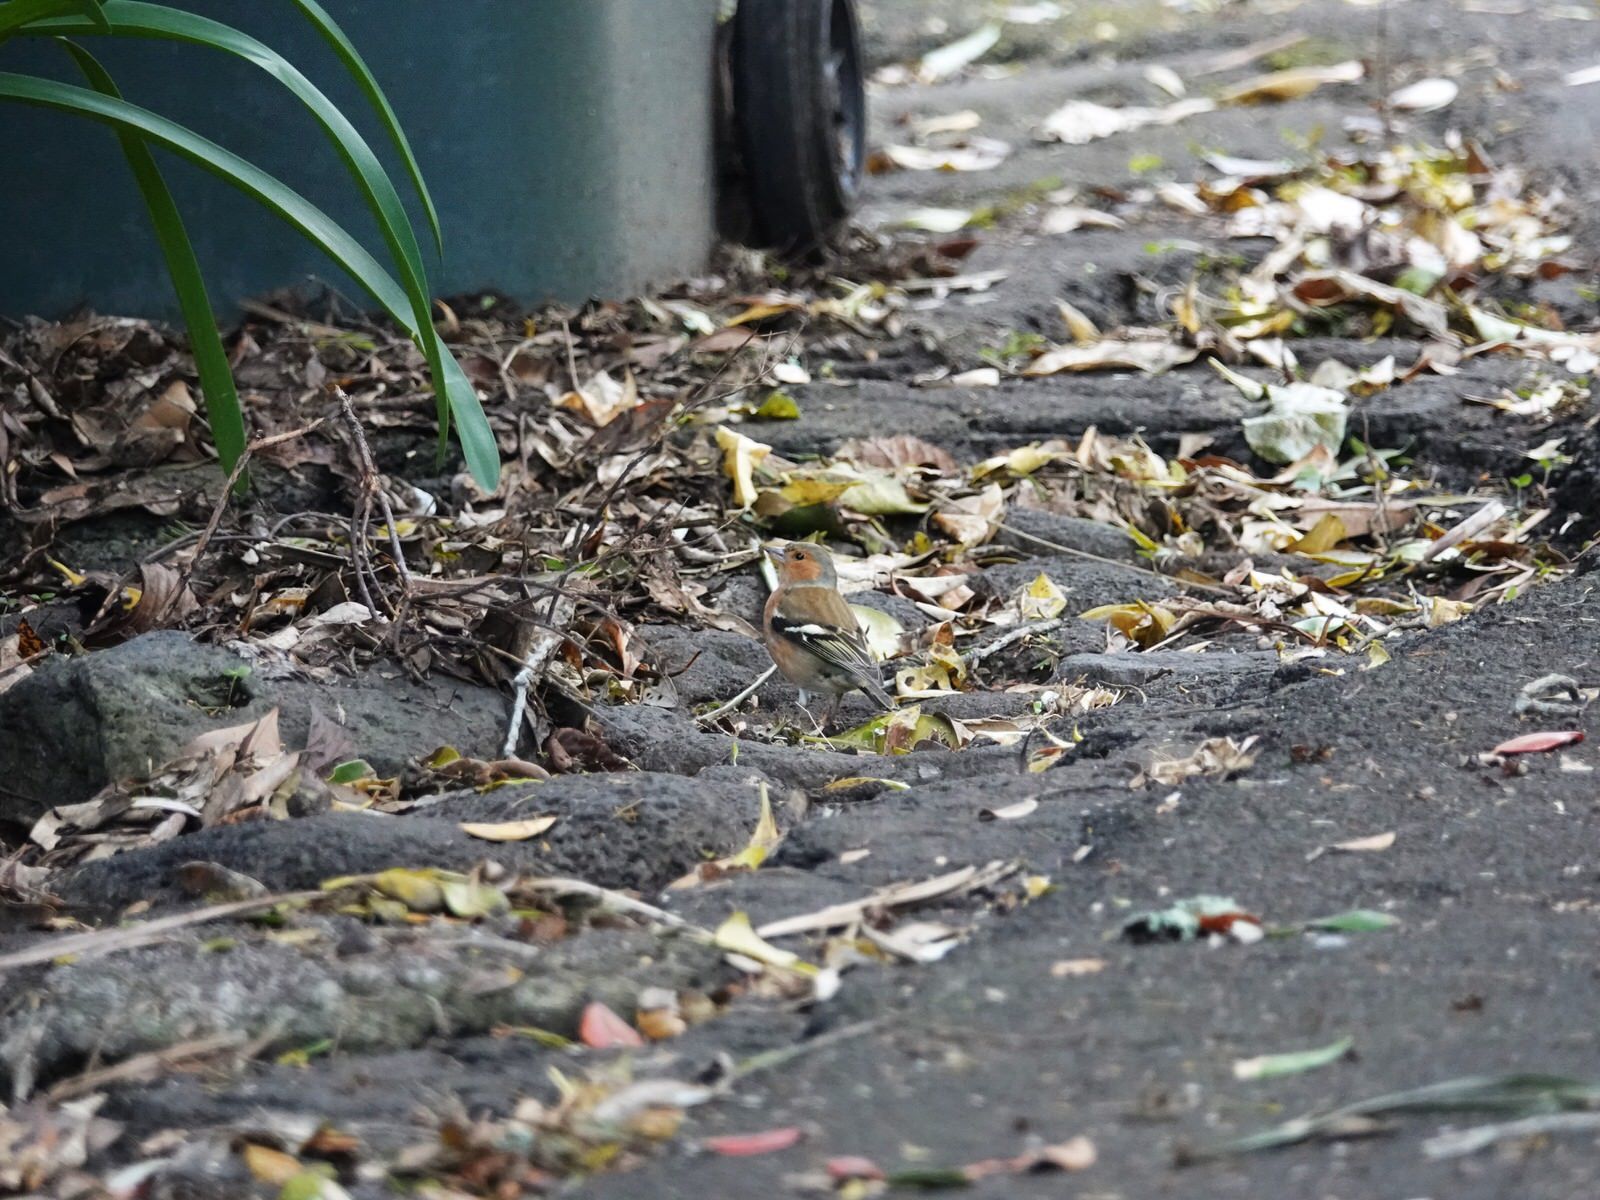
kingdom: Animalia
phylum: Chordata
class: Aves
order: Passeriformes
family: Fringillidae
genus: Fringilla
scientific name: Fringilla coelebs
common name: Common chaffinch
